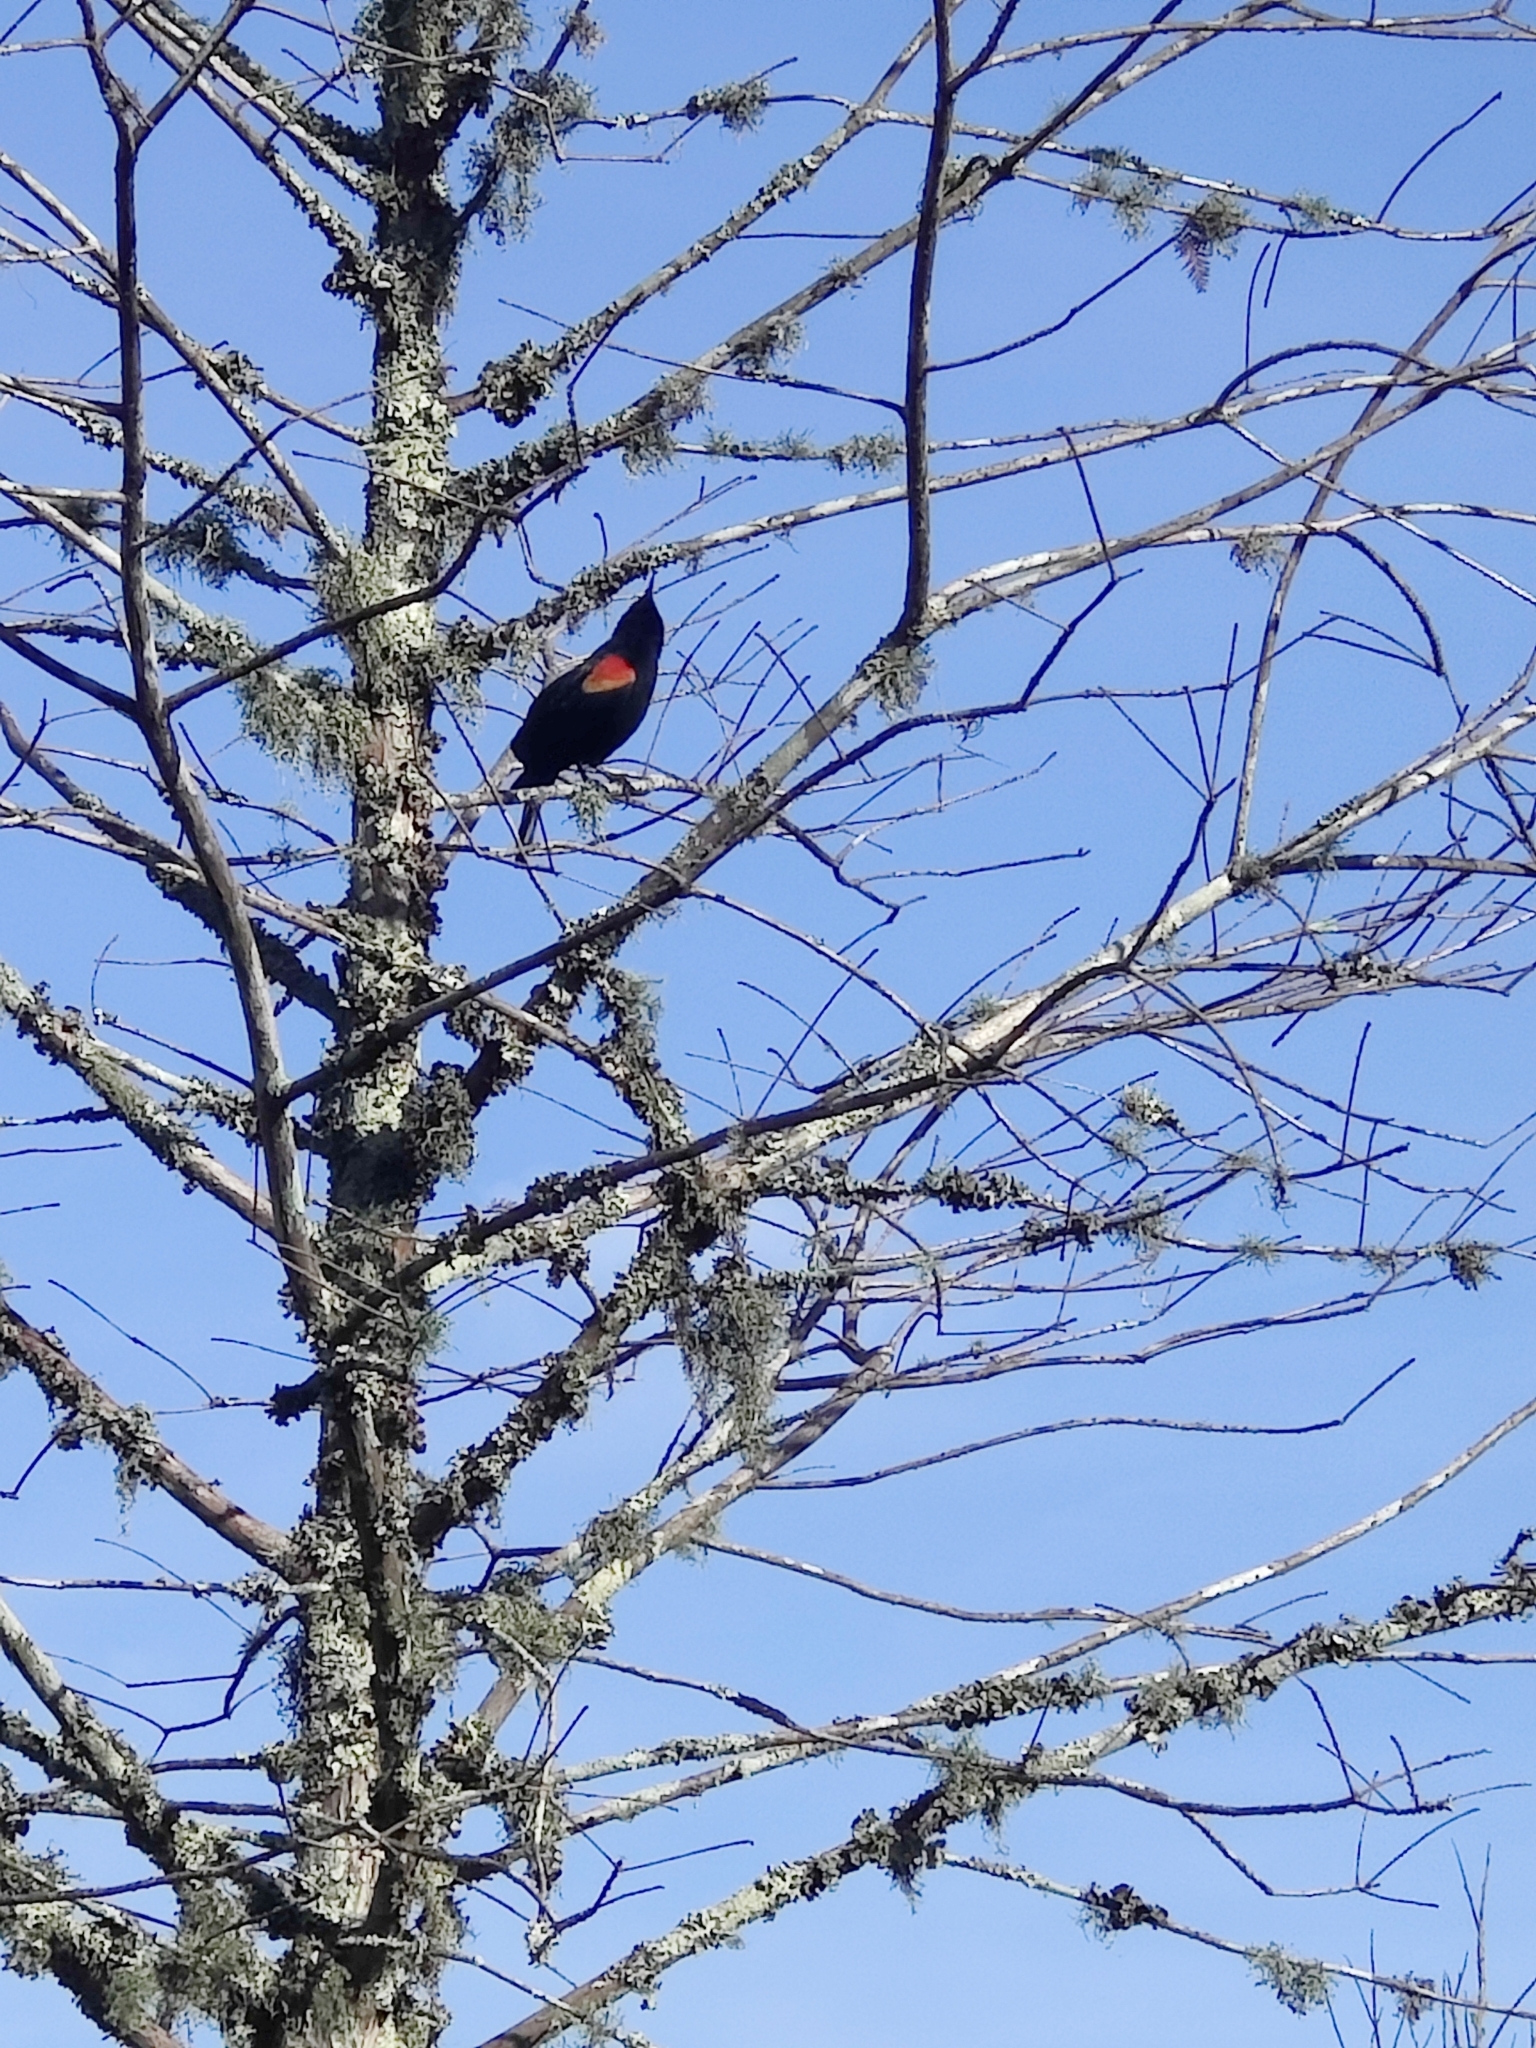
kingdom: Animalia
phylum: Chordata
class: Aves
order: Passeriformes
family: Icteridae
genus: Agelaius
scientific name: Agelaius phoeniceus
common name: Red-winged blackbird
